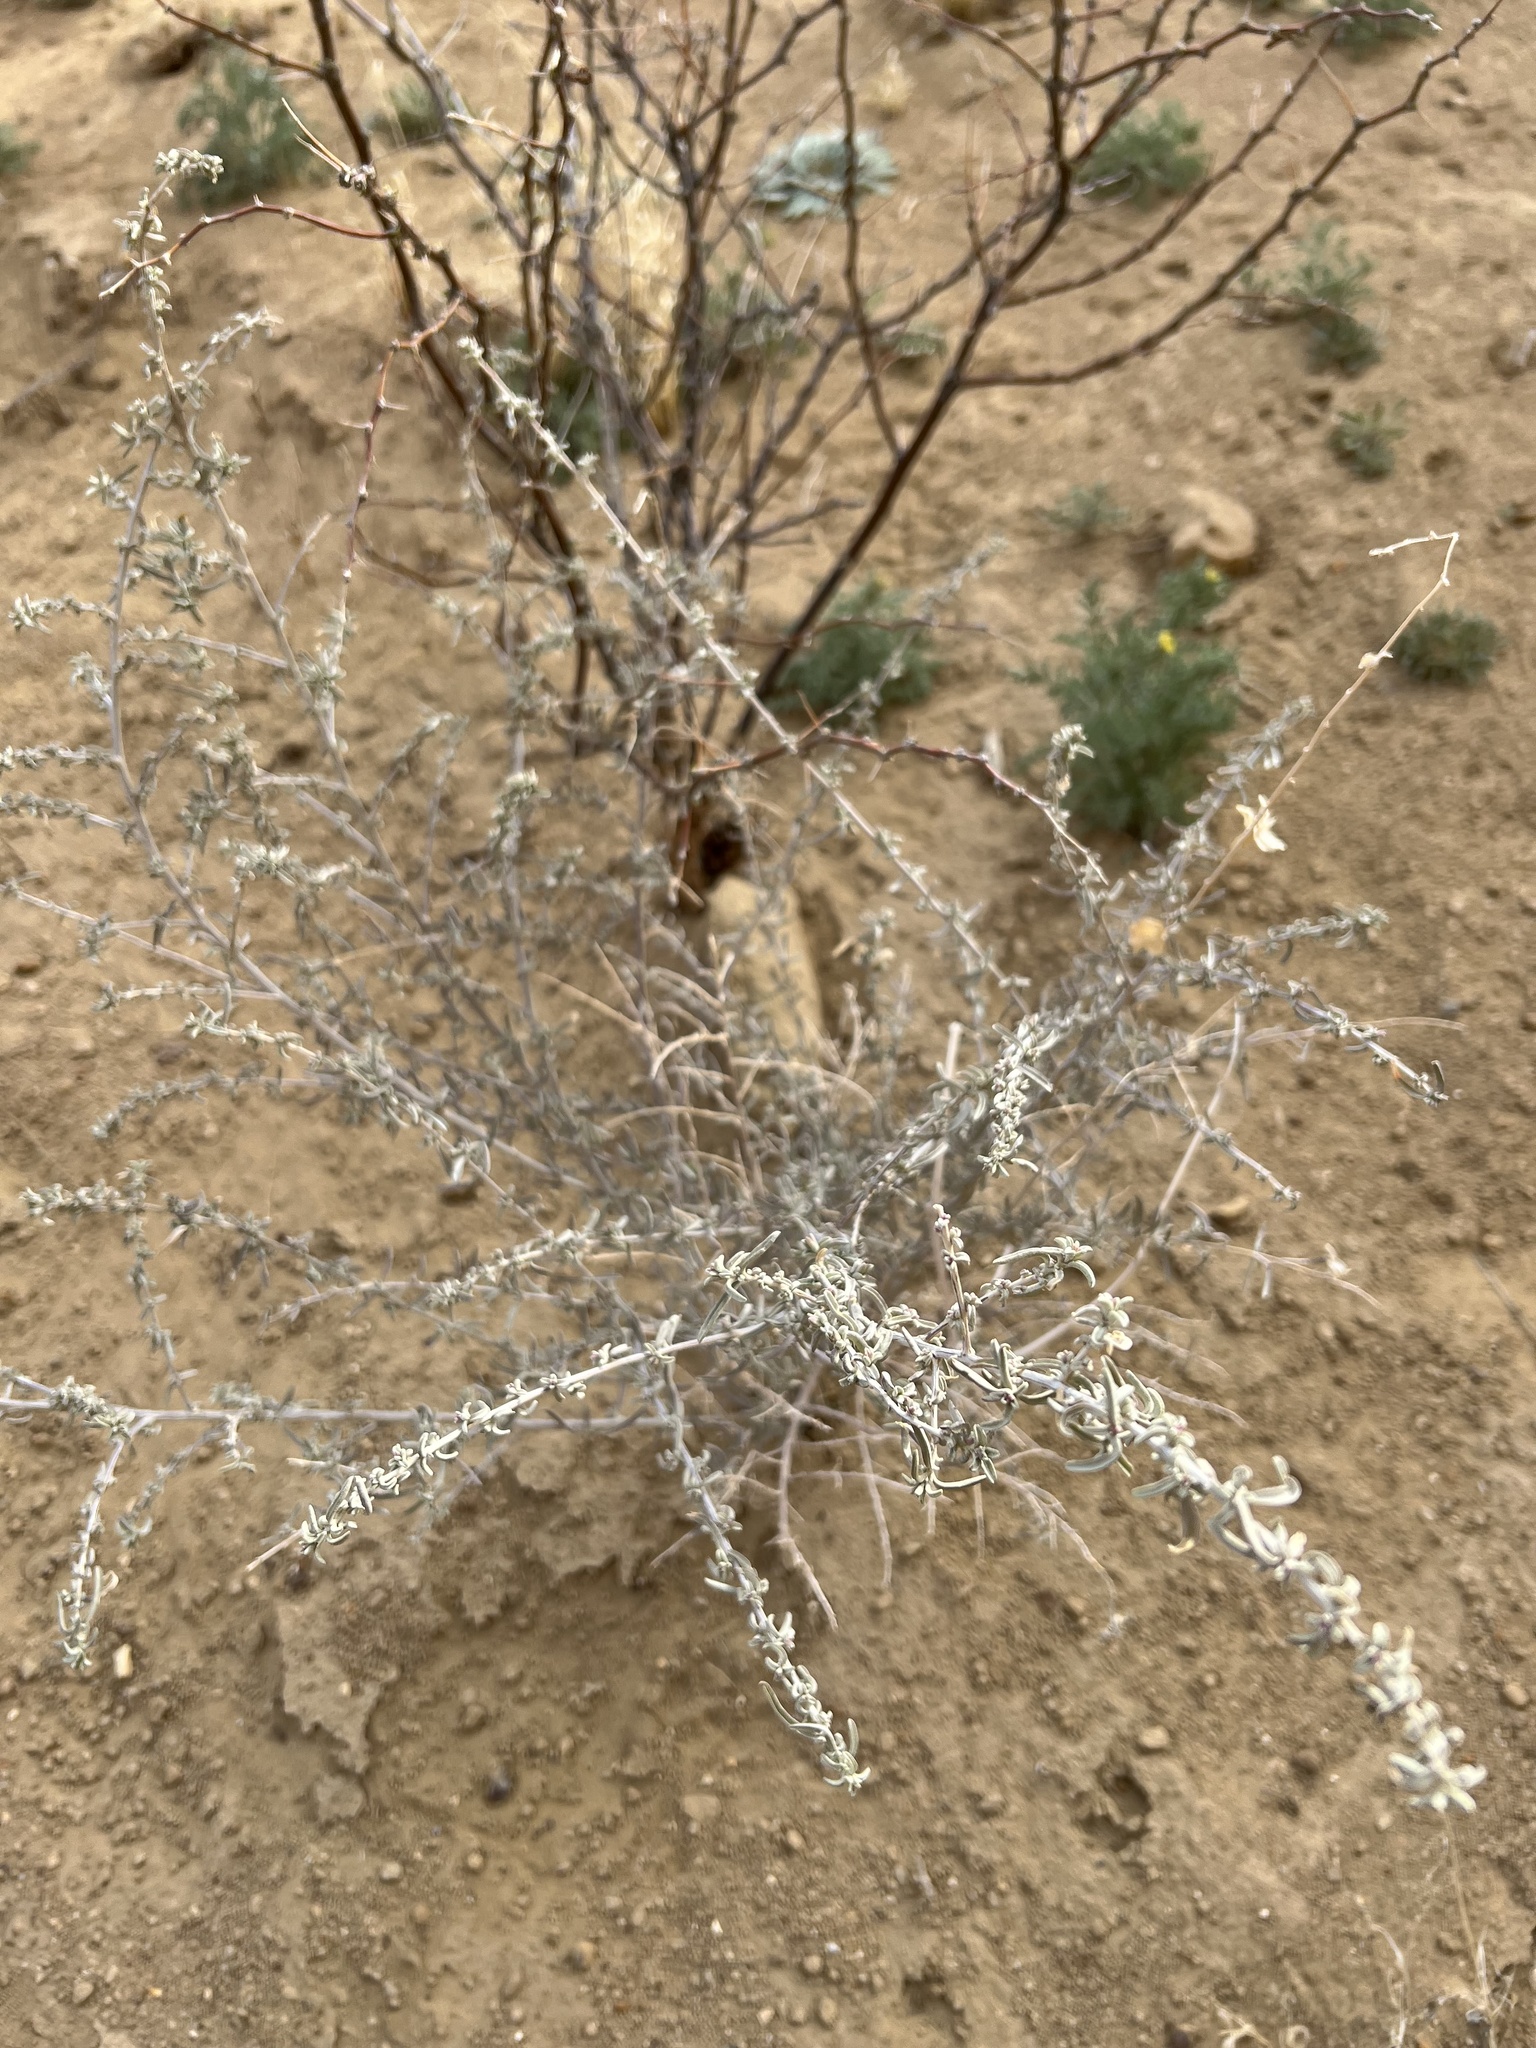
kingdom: Plantae
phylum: Tracheophyta
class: Magnoliopsida
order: Caryophyllales
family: Amaranthaceae
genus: Atriplex
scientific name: Atriplex canescens
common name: Four-wing saltbush
